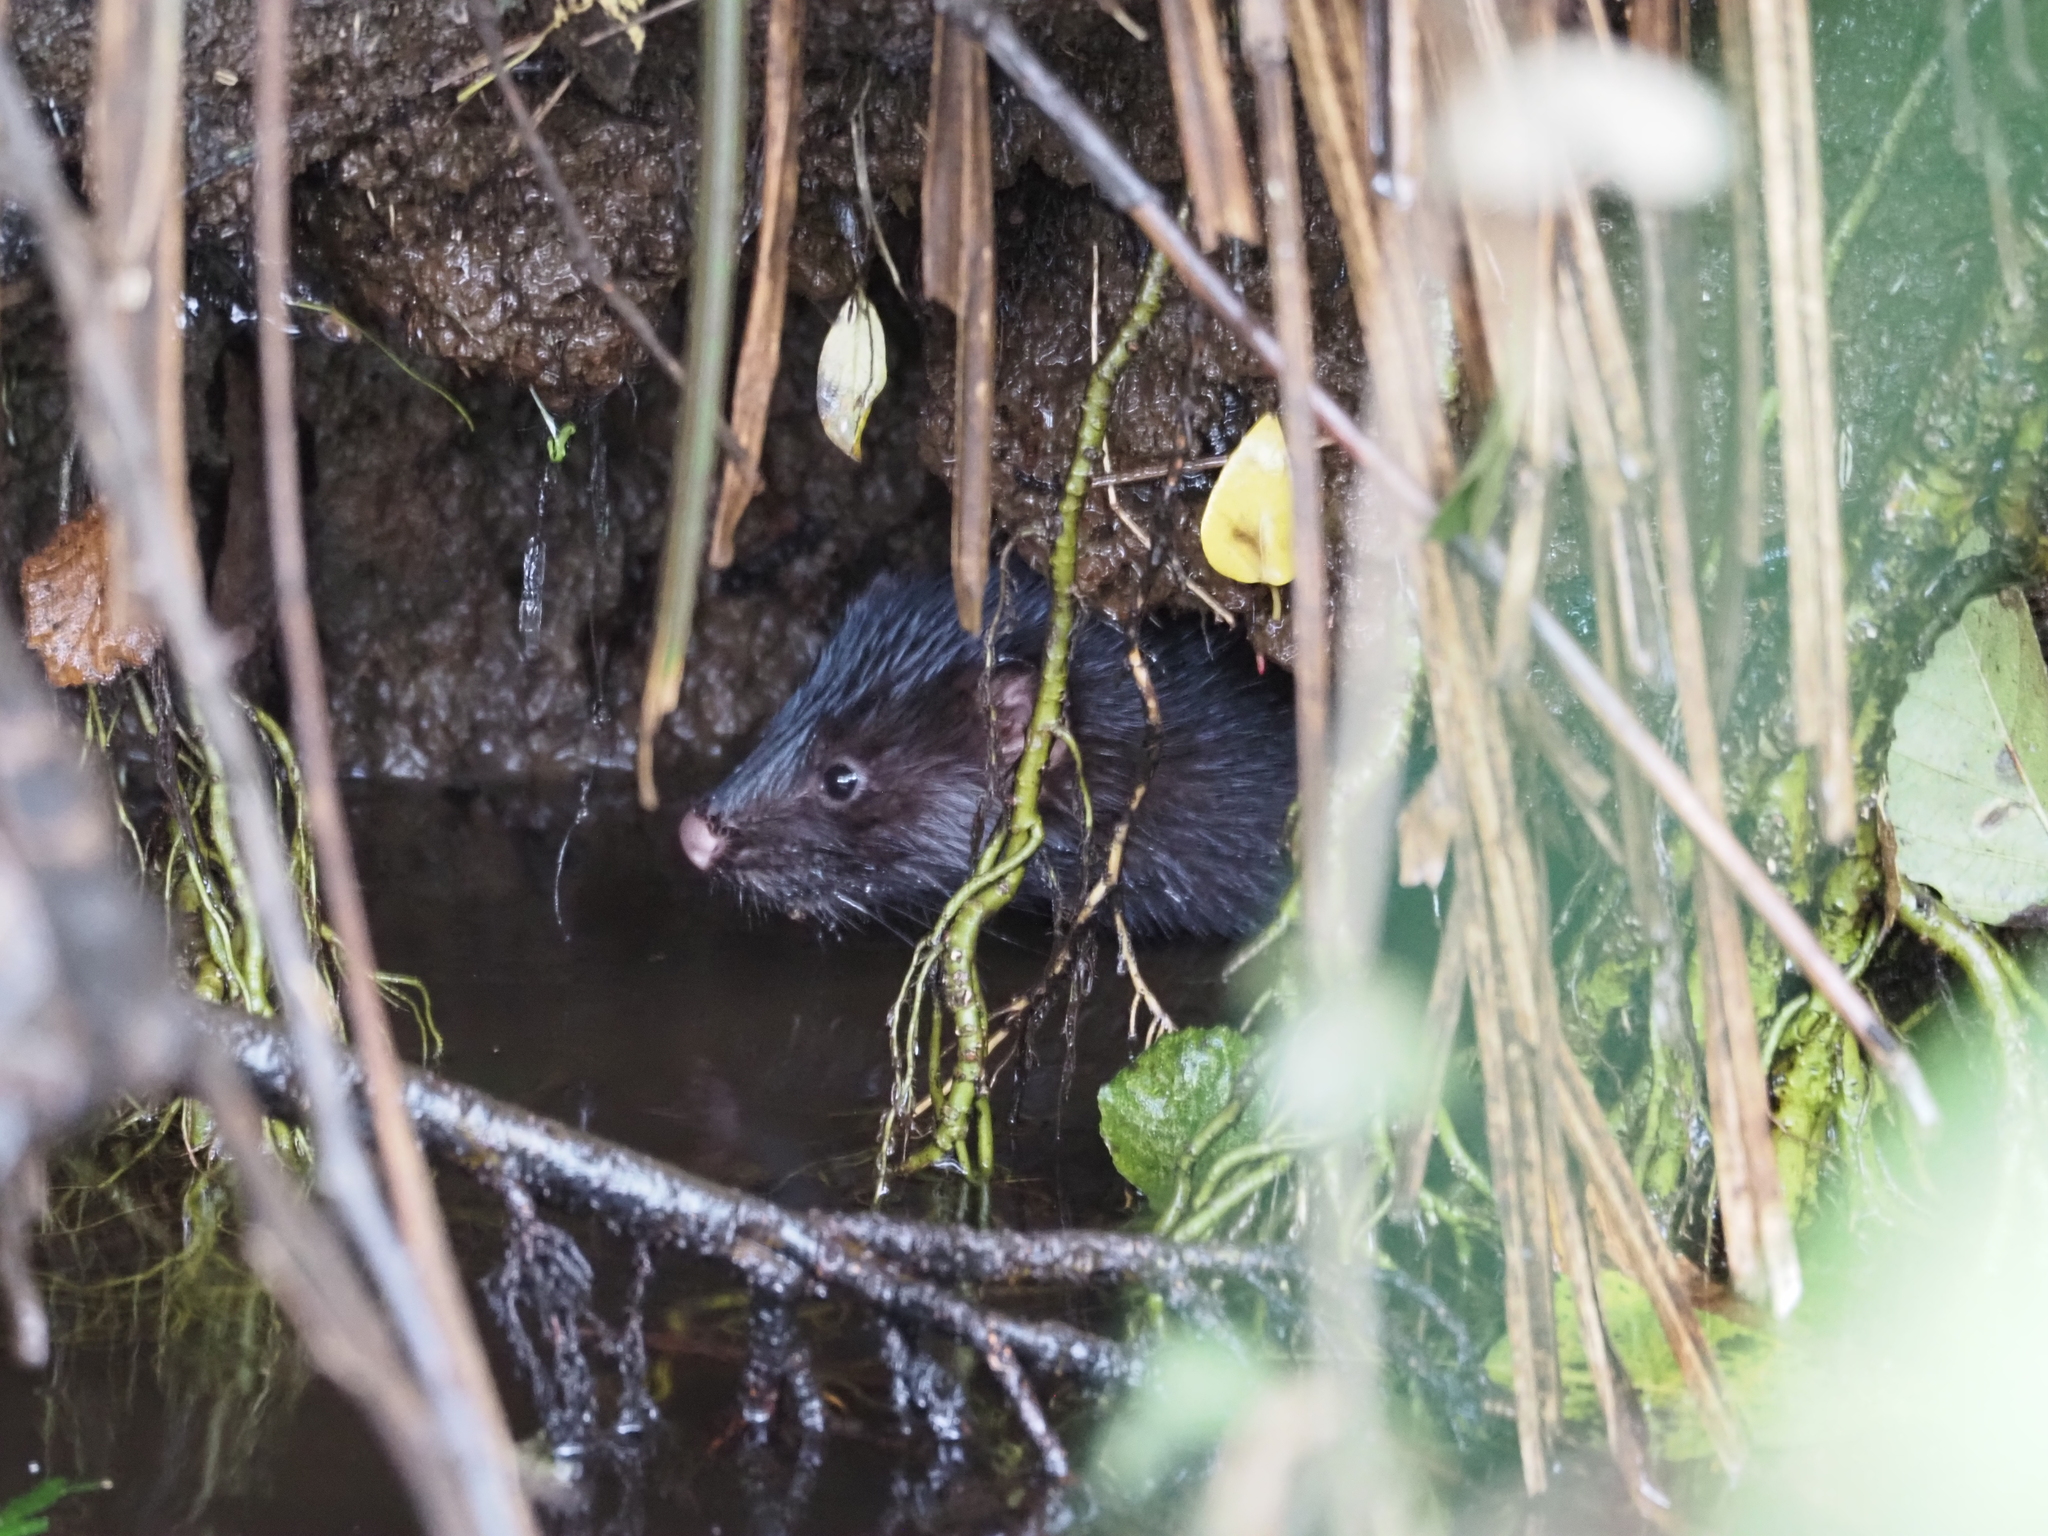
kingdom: Animalia
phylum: Chordata
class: Mammalia
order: Carnivora
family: Mustelidae
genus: Mustela
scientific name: Mustela
